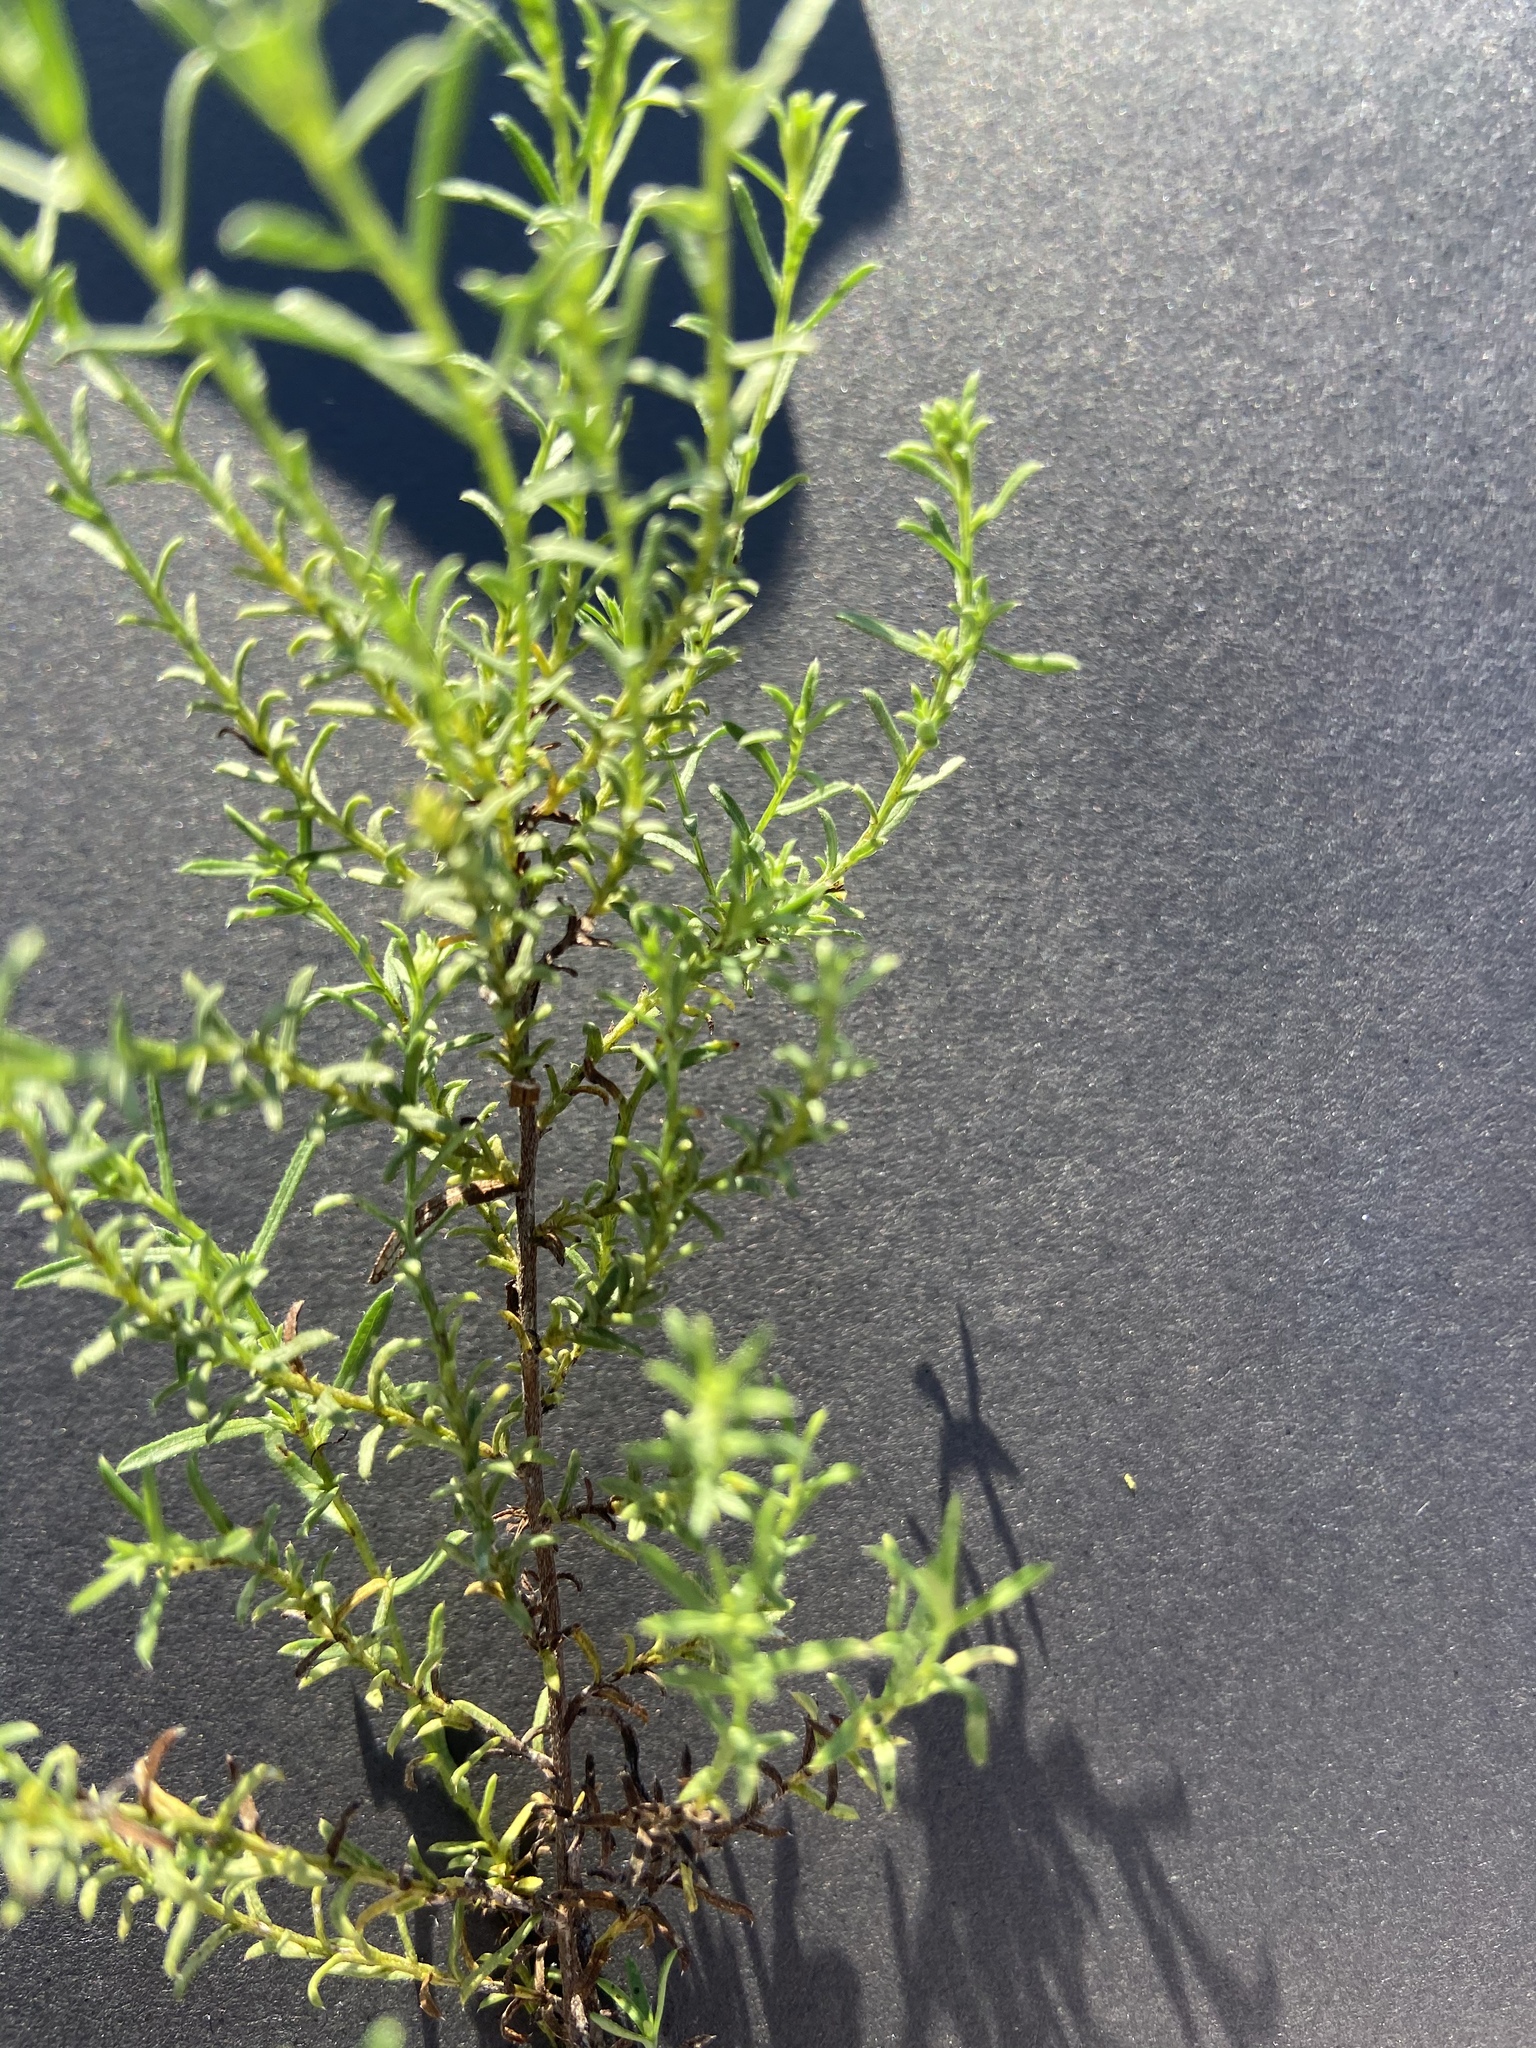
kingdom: Plantae
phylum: Tracheophyta
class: Magnoliopsida
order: Asterales
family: Asteraceae
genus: Symphyotrichum
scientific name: Symphyotrichum ericoides
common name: Heath aster
